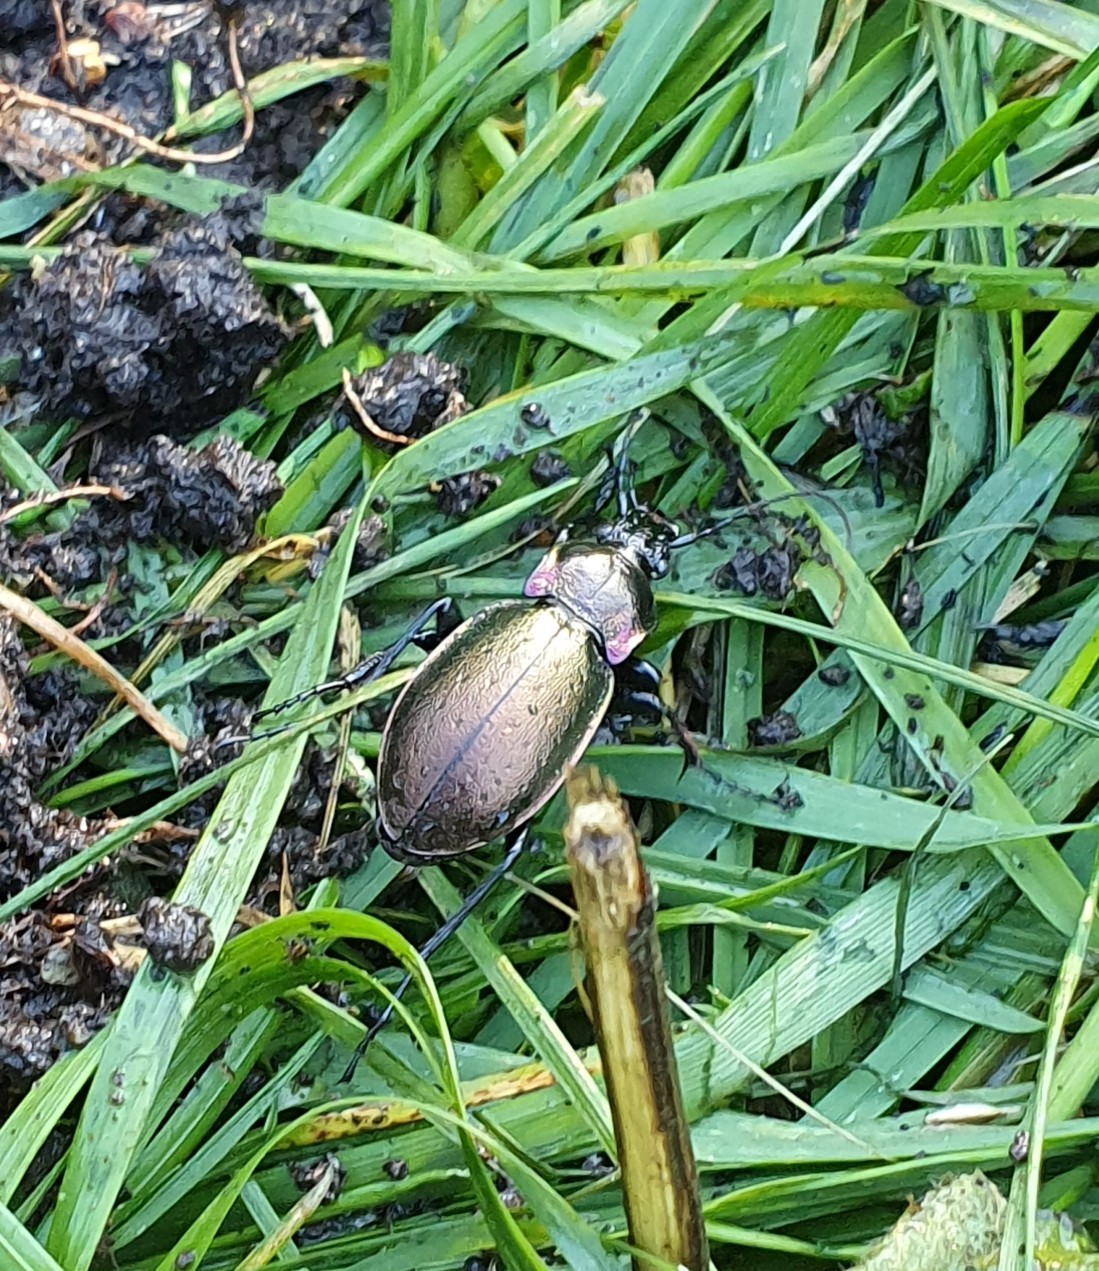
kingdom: Animalia
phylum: Arthropoda
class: Insecta
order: Coleoptera
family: Carabidae
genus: Carabus
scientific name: Carabus nemoralis
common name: European ground beetle
